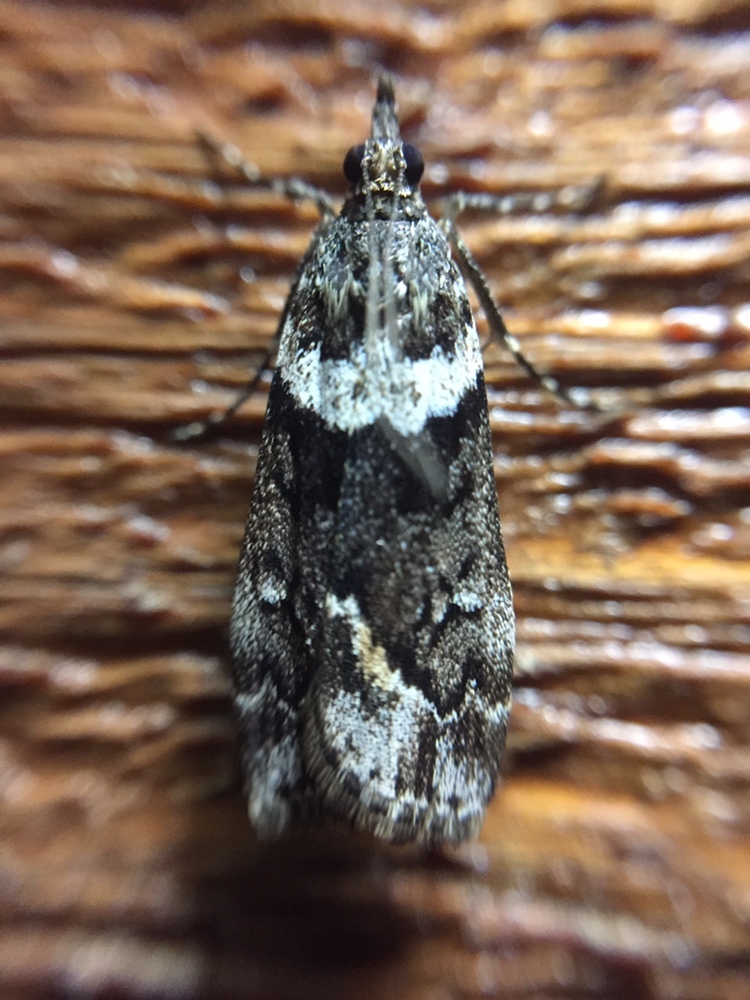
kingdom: Animalia
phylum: Arthropoda
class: Insecta
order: Lepidoptera
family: Crambidae
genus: Eudonia
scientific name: Eudonia submarginalis
